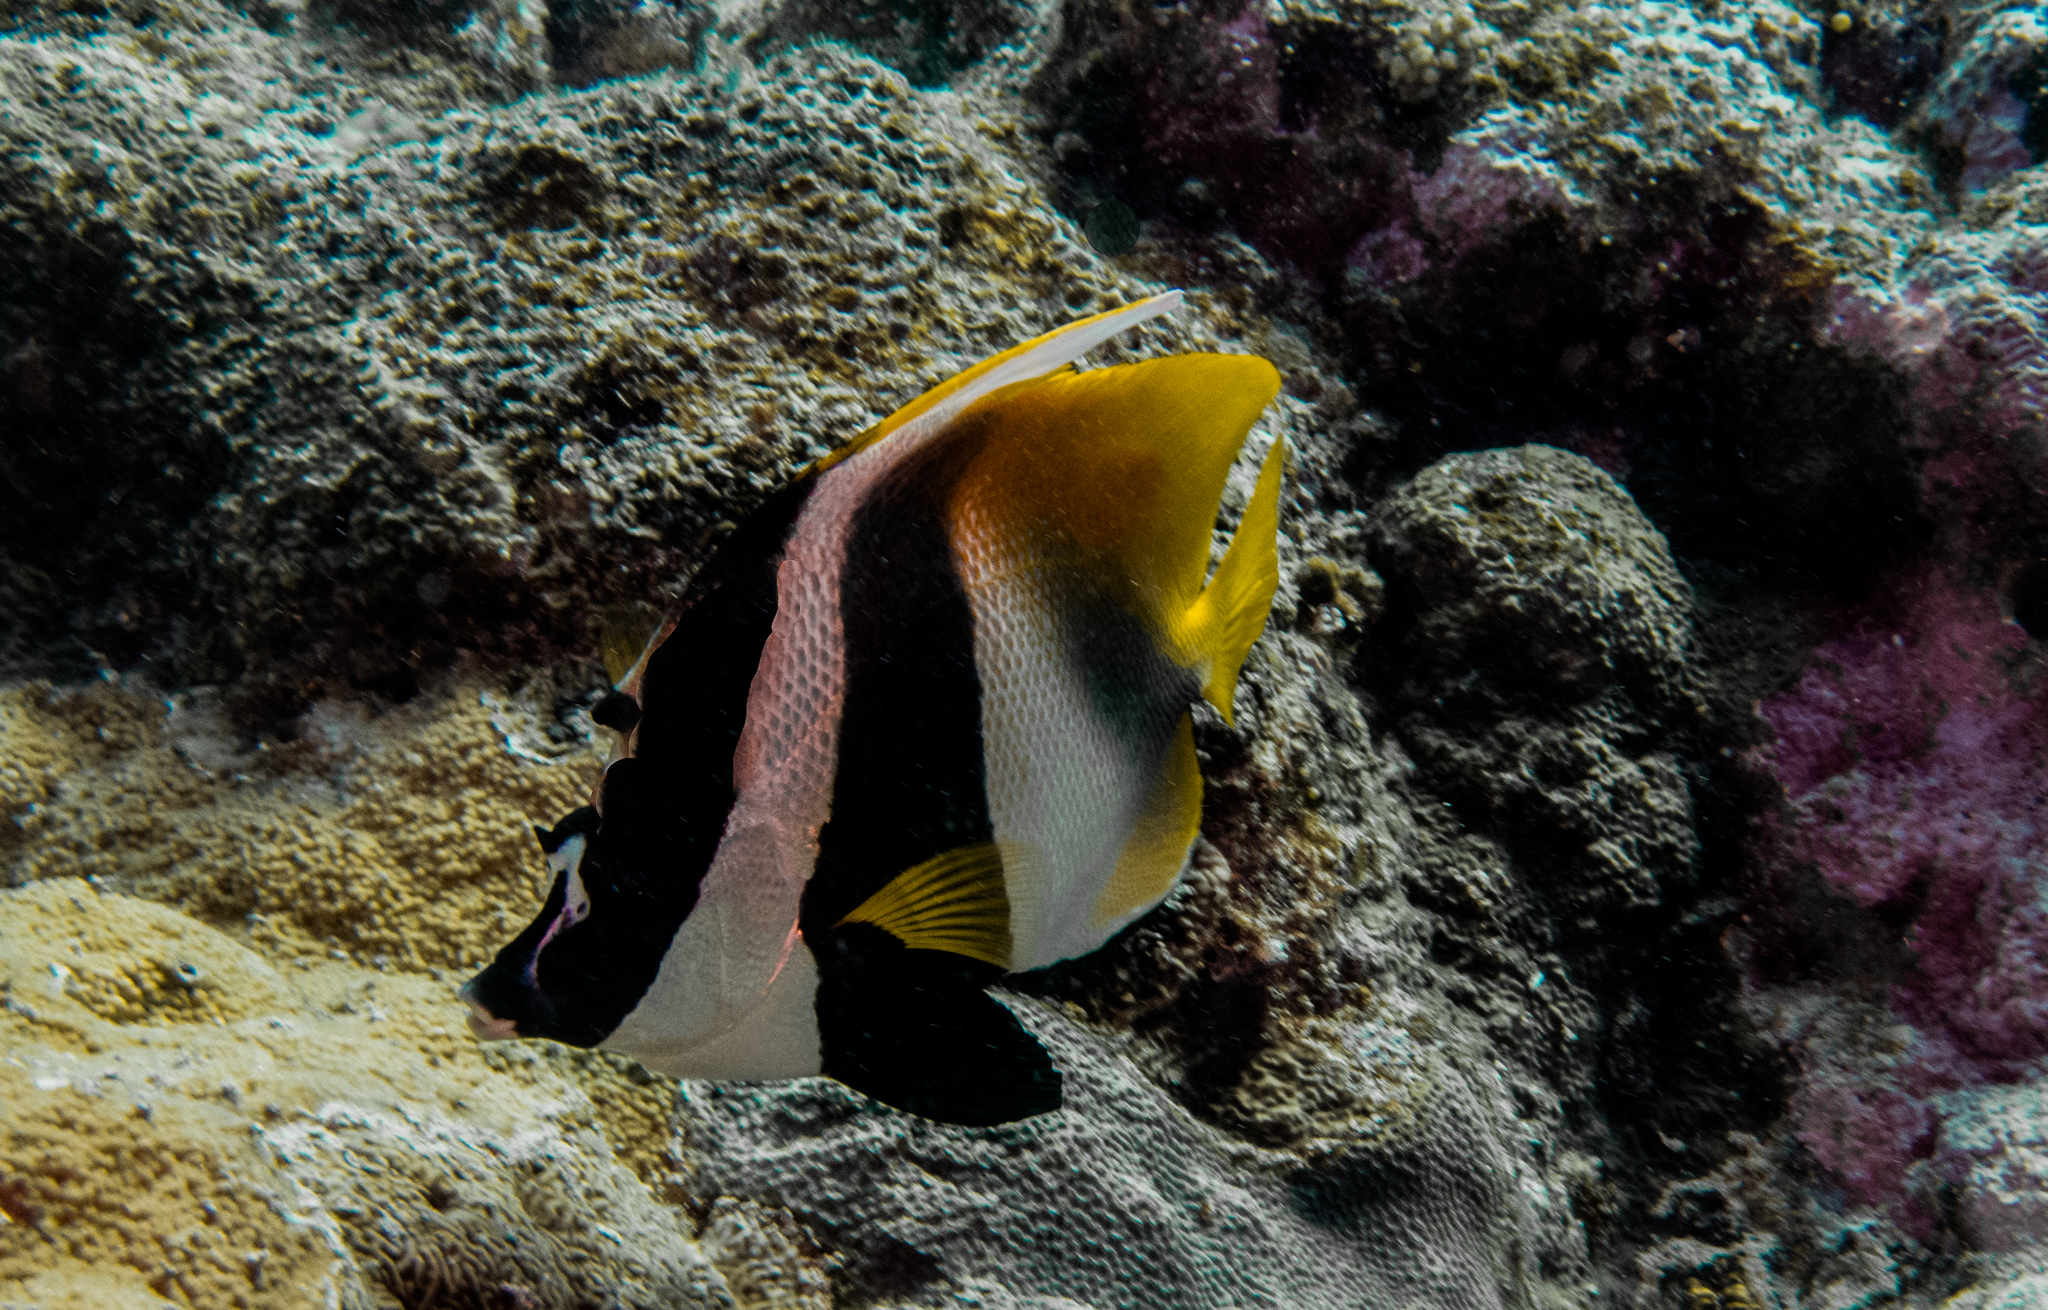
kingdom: Animalia
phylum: Chordata
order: Perciformes
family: Chaetodontidae
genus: Heniochus
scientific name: Heniochus monoceros
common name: Masked bannerfish
